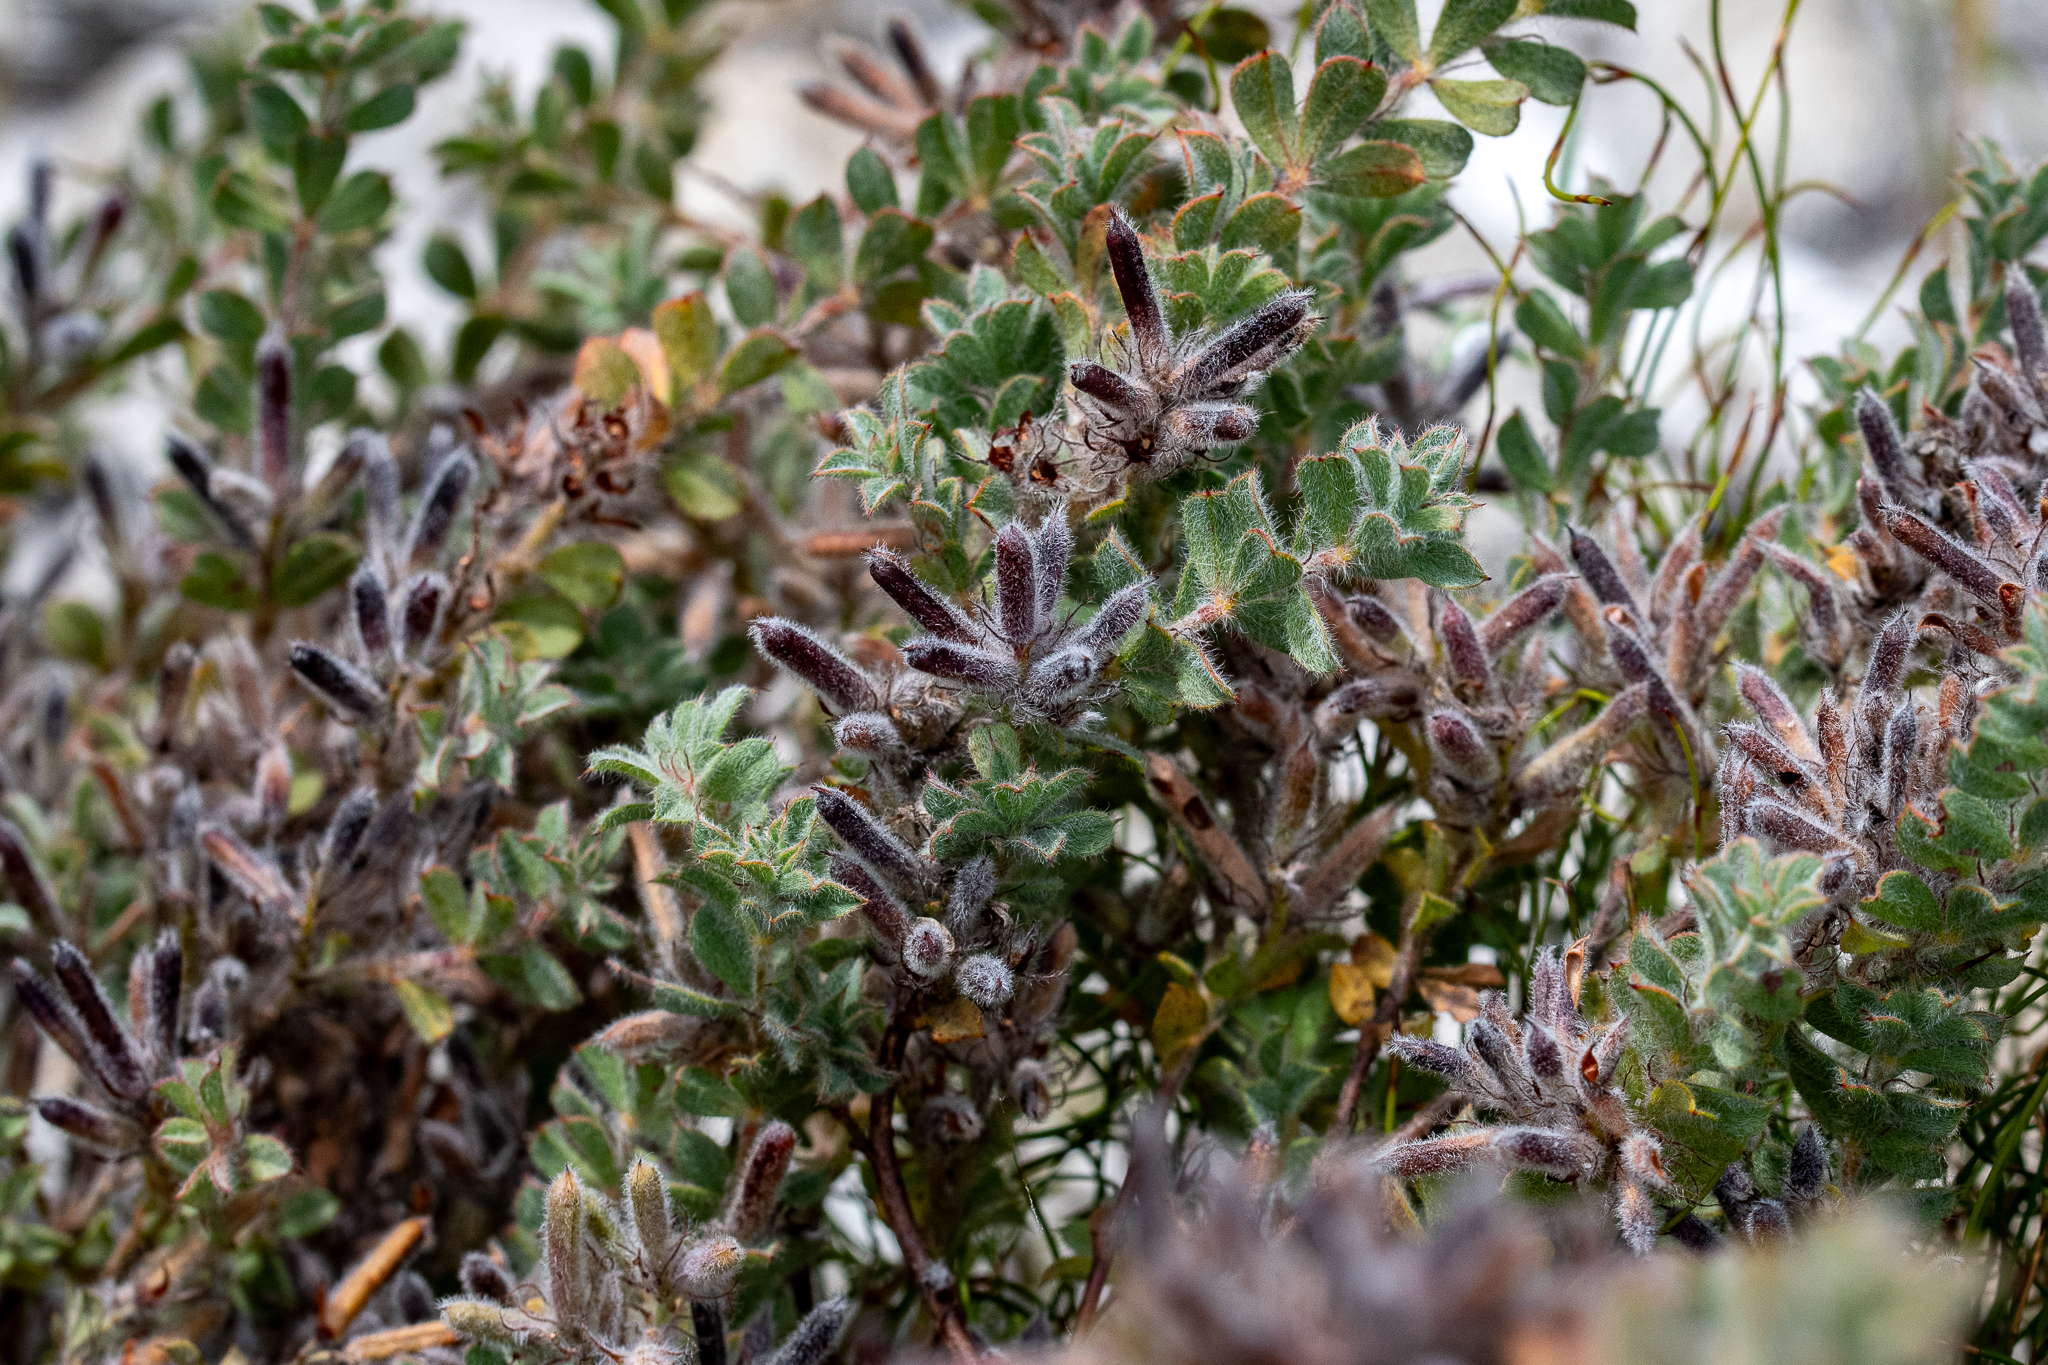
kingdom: Plantae
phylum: Tracheophyta
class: Magnoliopsida
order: Fabales
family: Fabaceae
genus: Indigofera
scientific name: Indigofera glomerata
